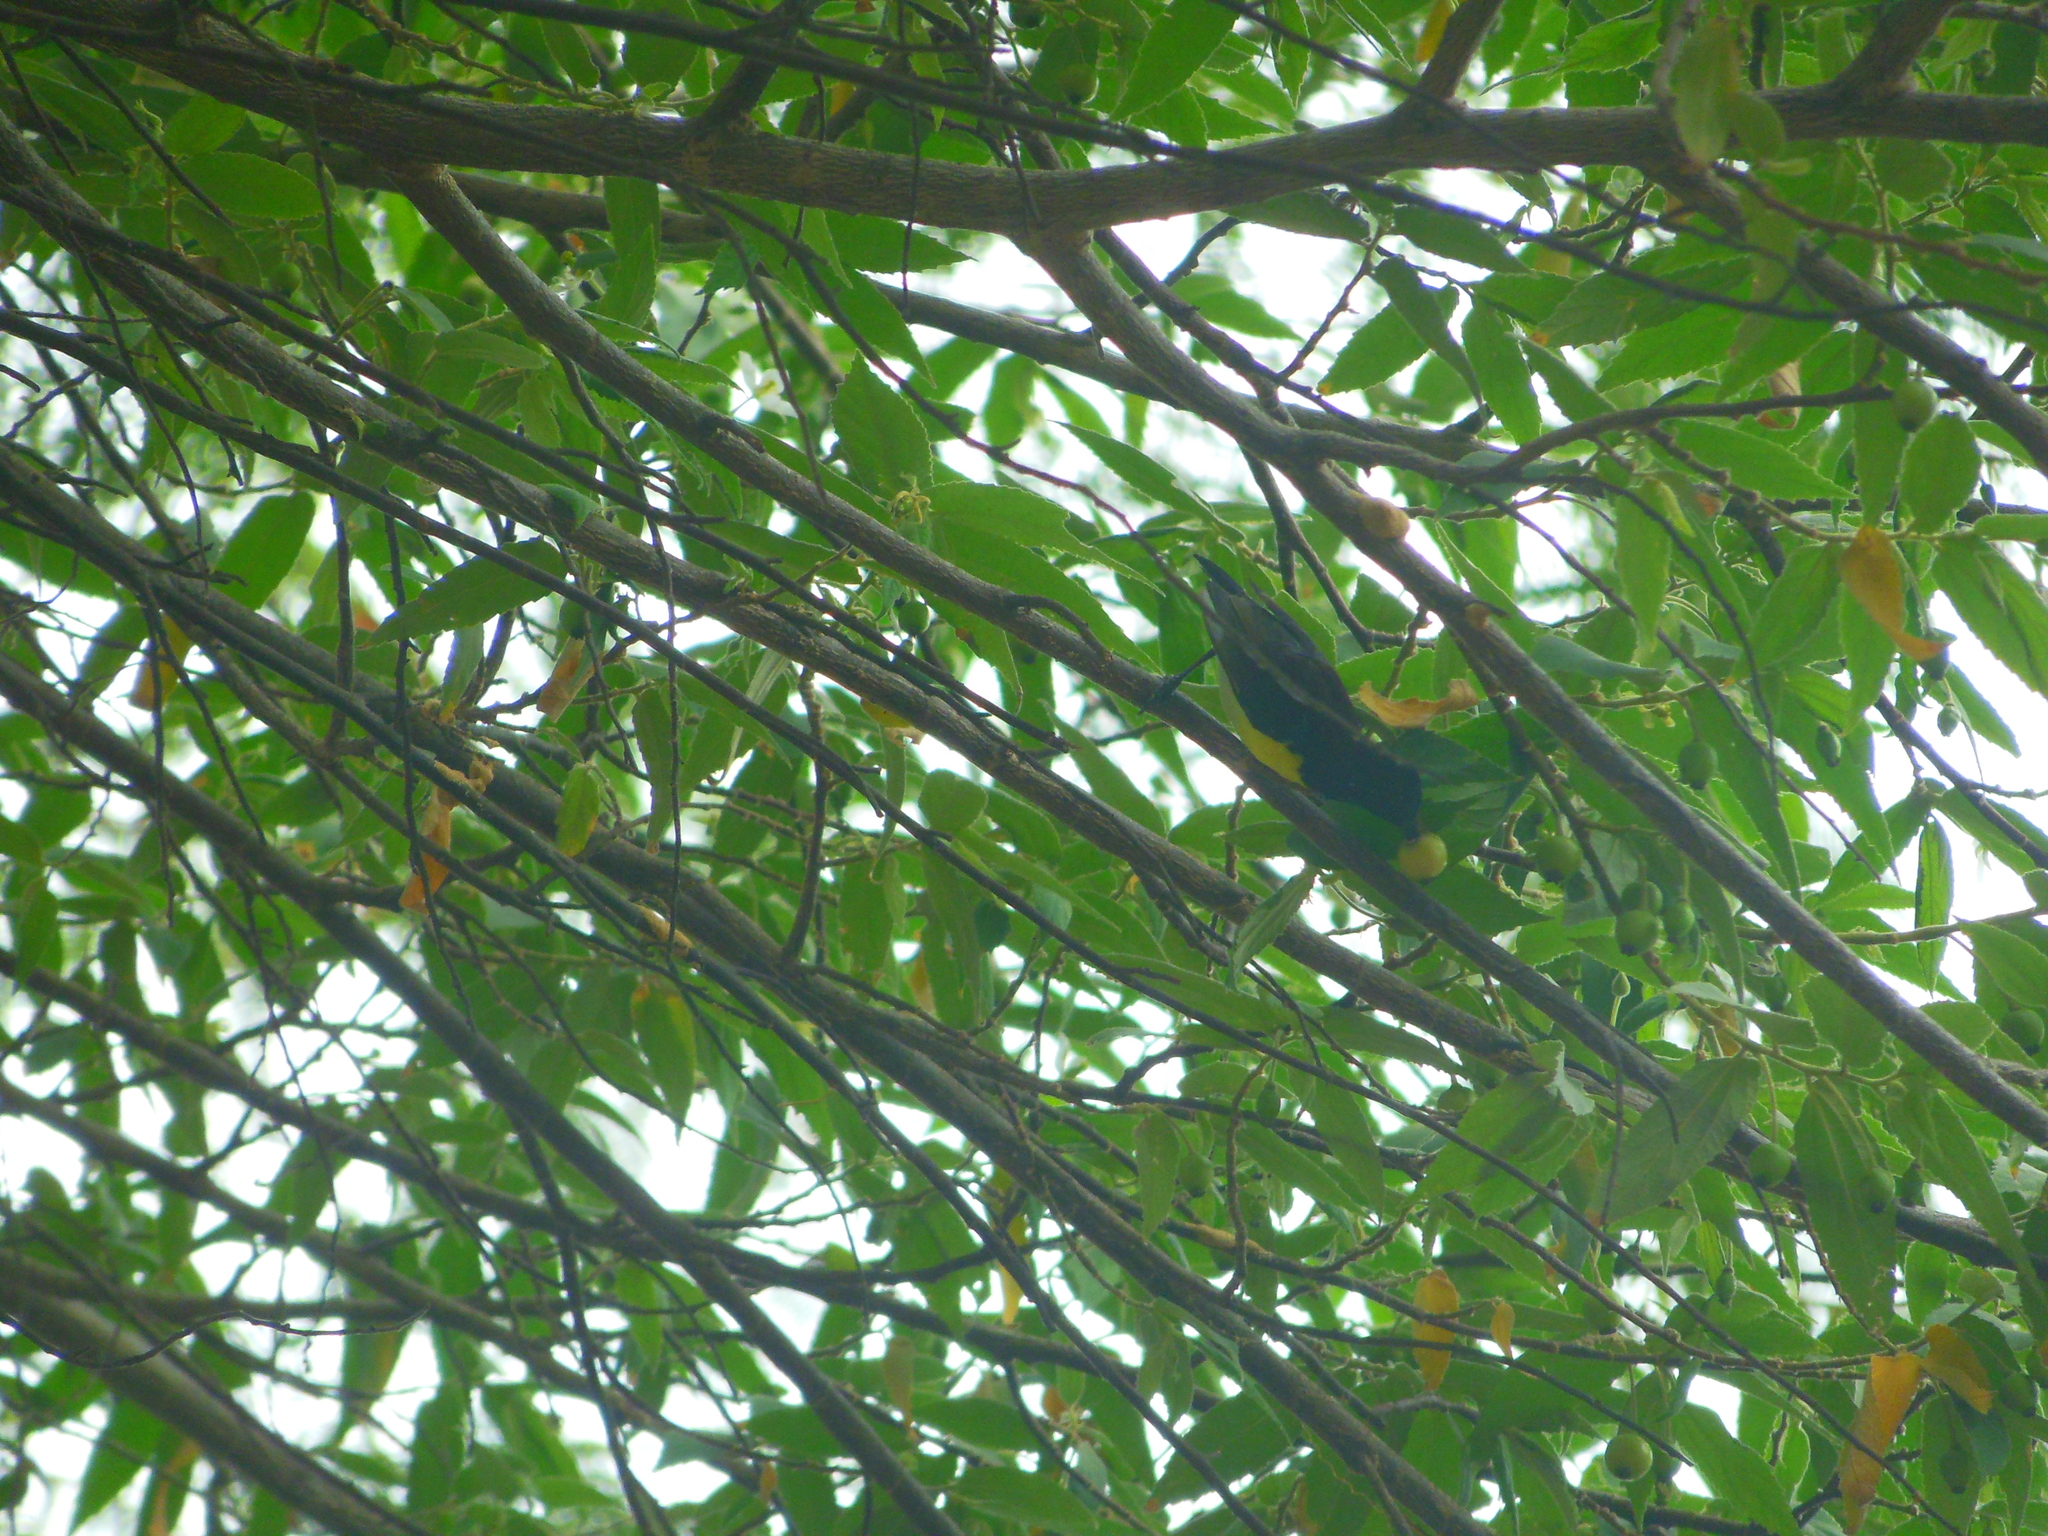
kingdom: Animalia
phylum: Chordata
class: Aves
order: Passeriformes
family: Nectariniidae
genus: Leptocoma
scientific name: Leptocoma zeylonica
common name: Purple-rumped sunbird
